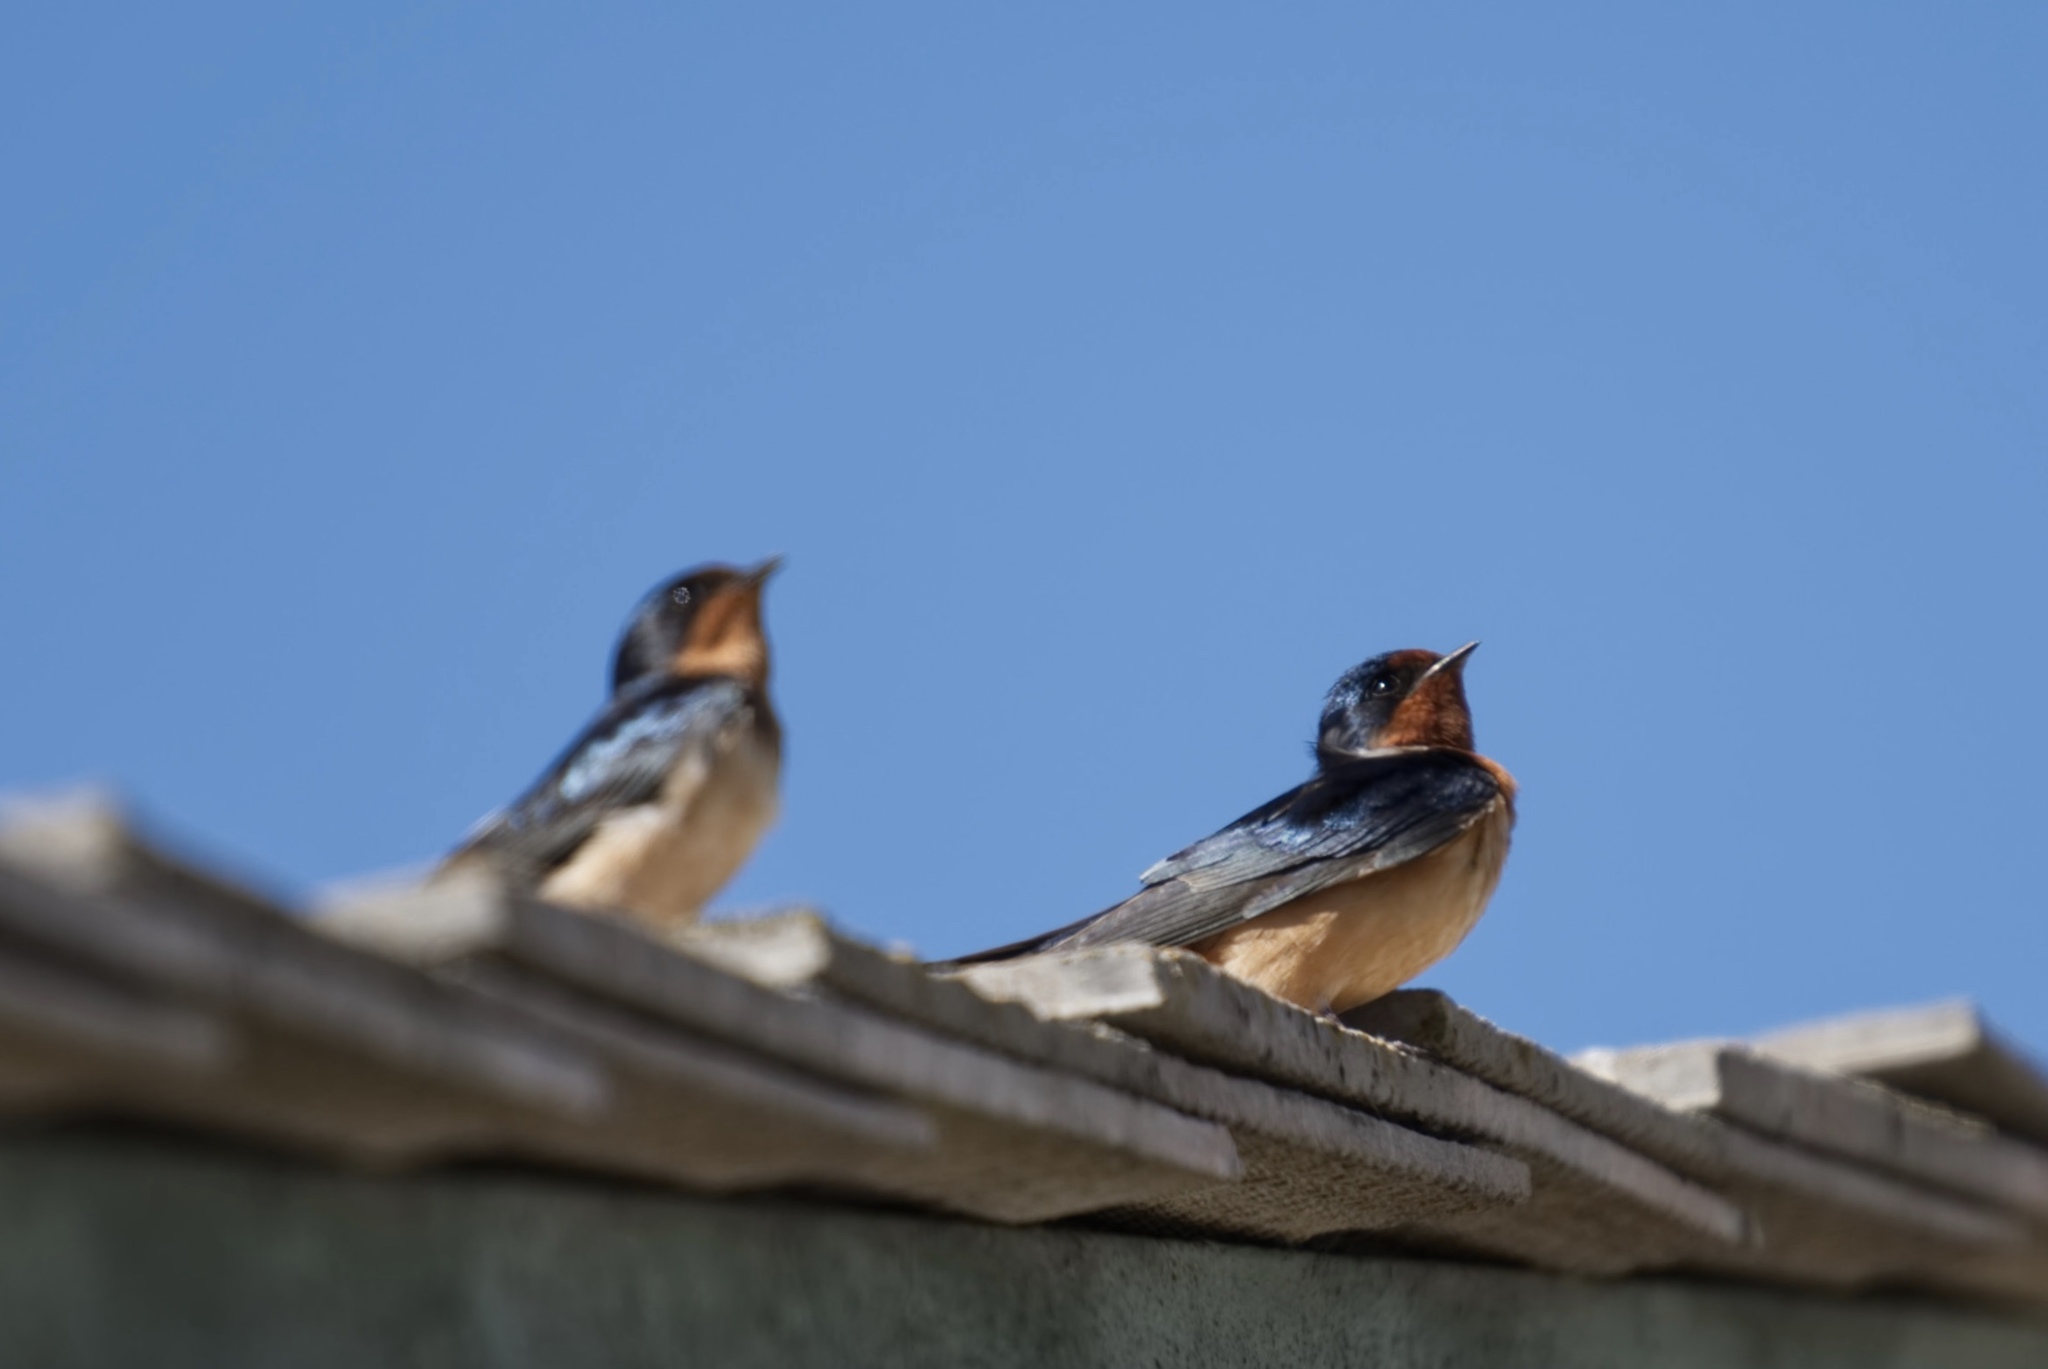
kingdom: Animalia
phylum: Chordata
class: Aves
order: Passeriformes
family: Hirundinidae
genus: Hirundo
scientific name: Hirundo rustica
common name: Barn swallow
